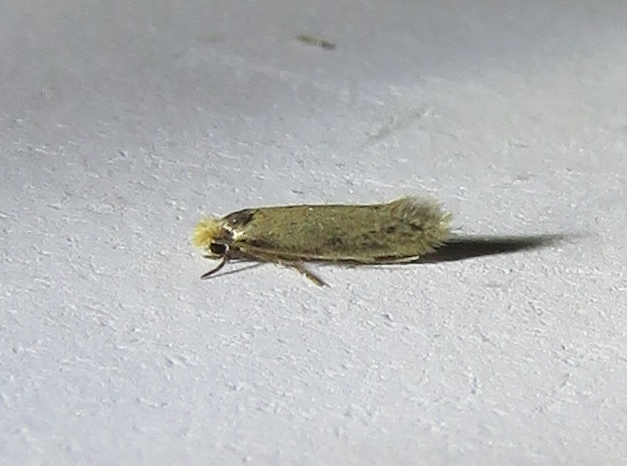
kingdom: Animalia
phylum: Arthropoda
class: Insecta
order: Lepidoptera
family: Meessiidae
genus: Homostinea
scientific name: Homostinea curviliniella
